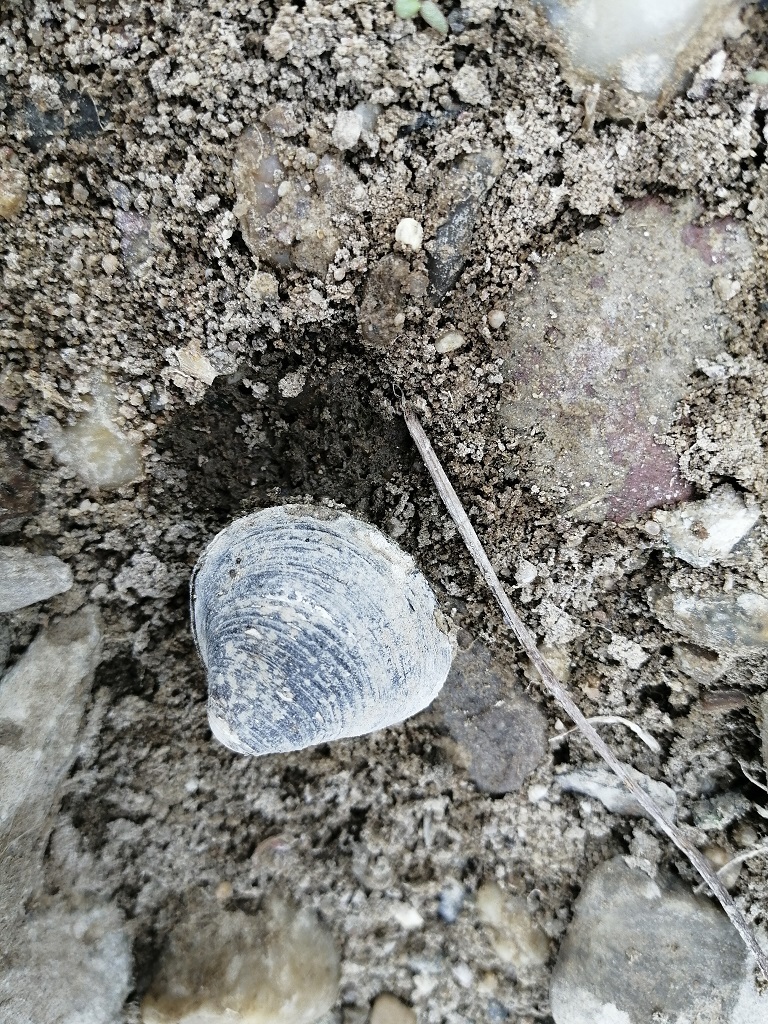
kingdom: Animalia
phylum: Mollusca
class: Bivalvia
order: Venerida
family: Cyrenidae
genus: Corbicula
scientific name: Corbicula fluminea
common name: Asian clam
